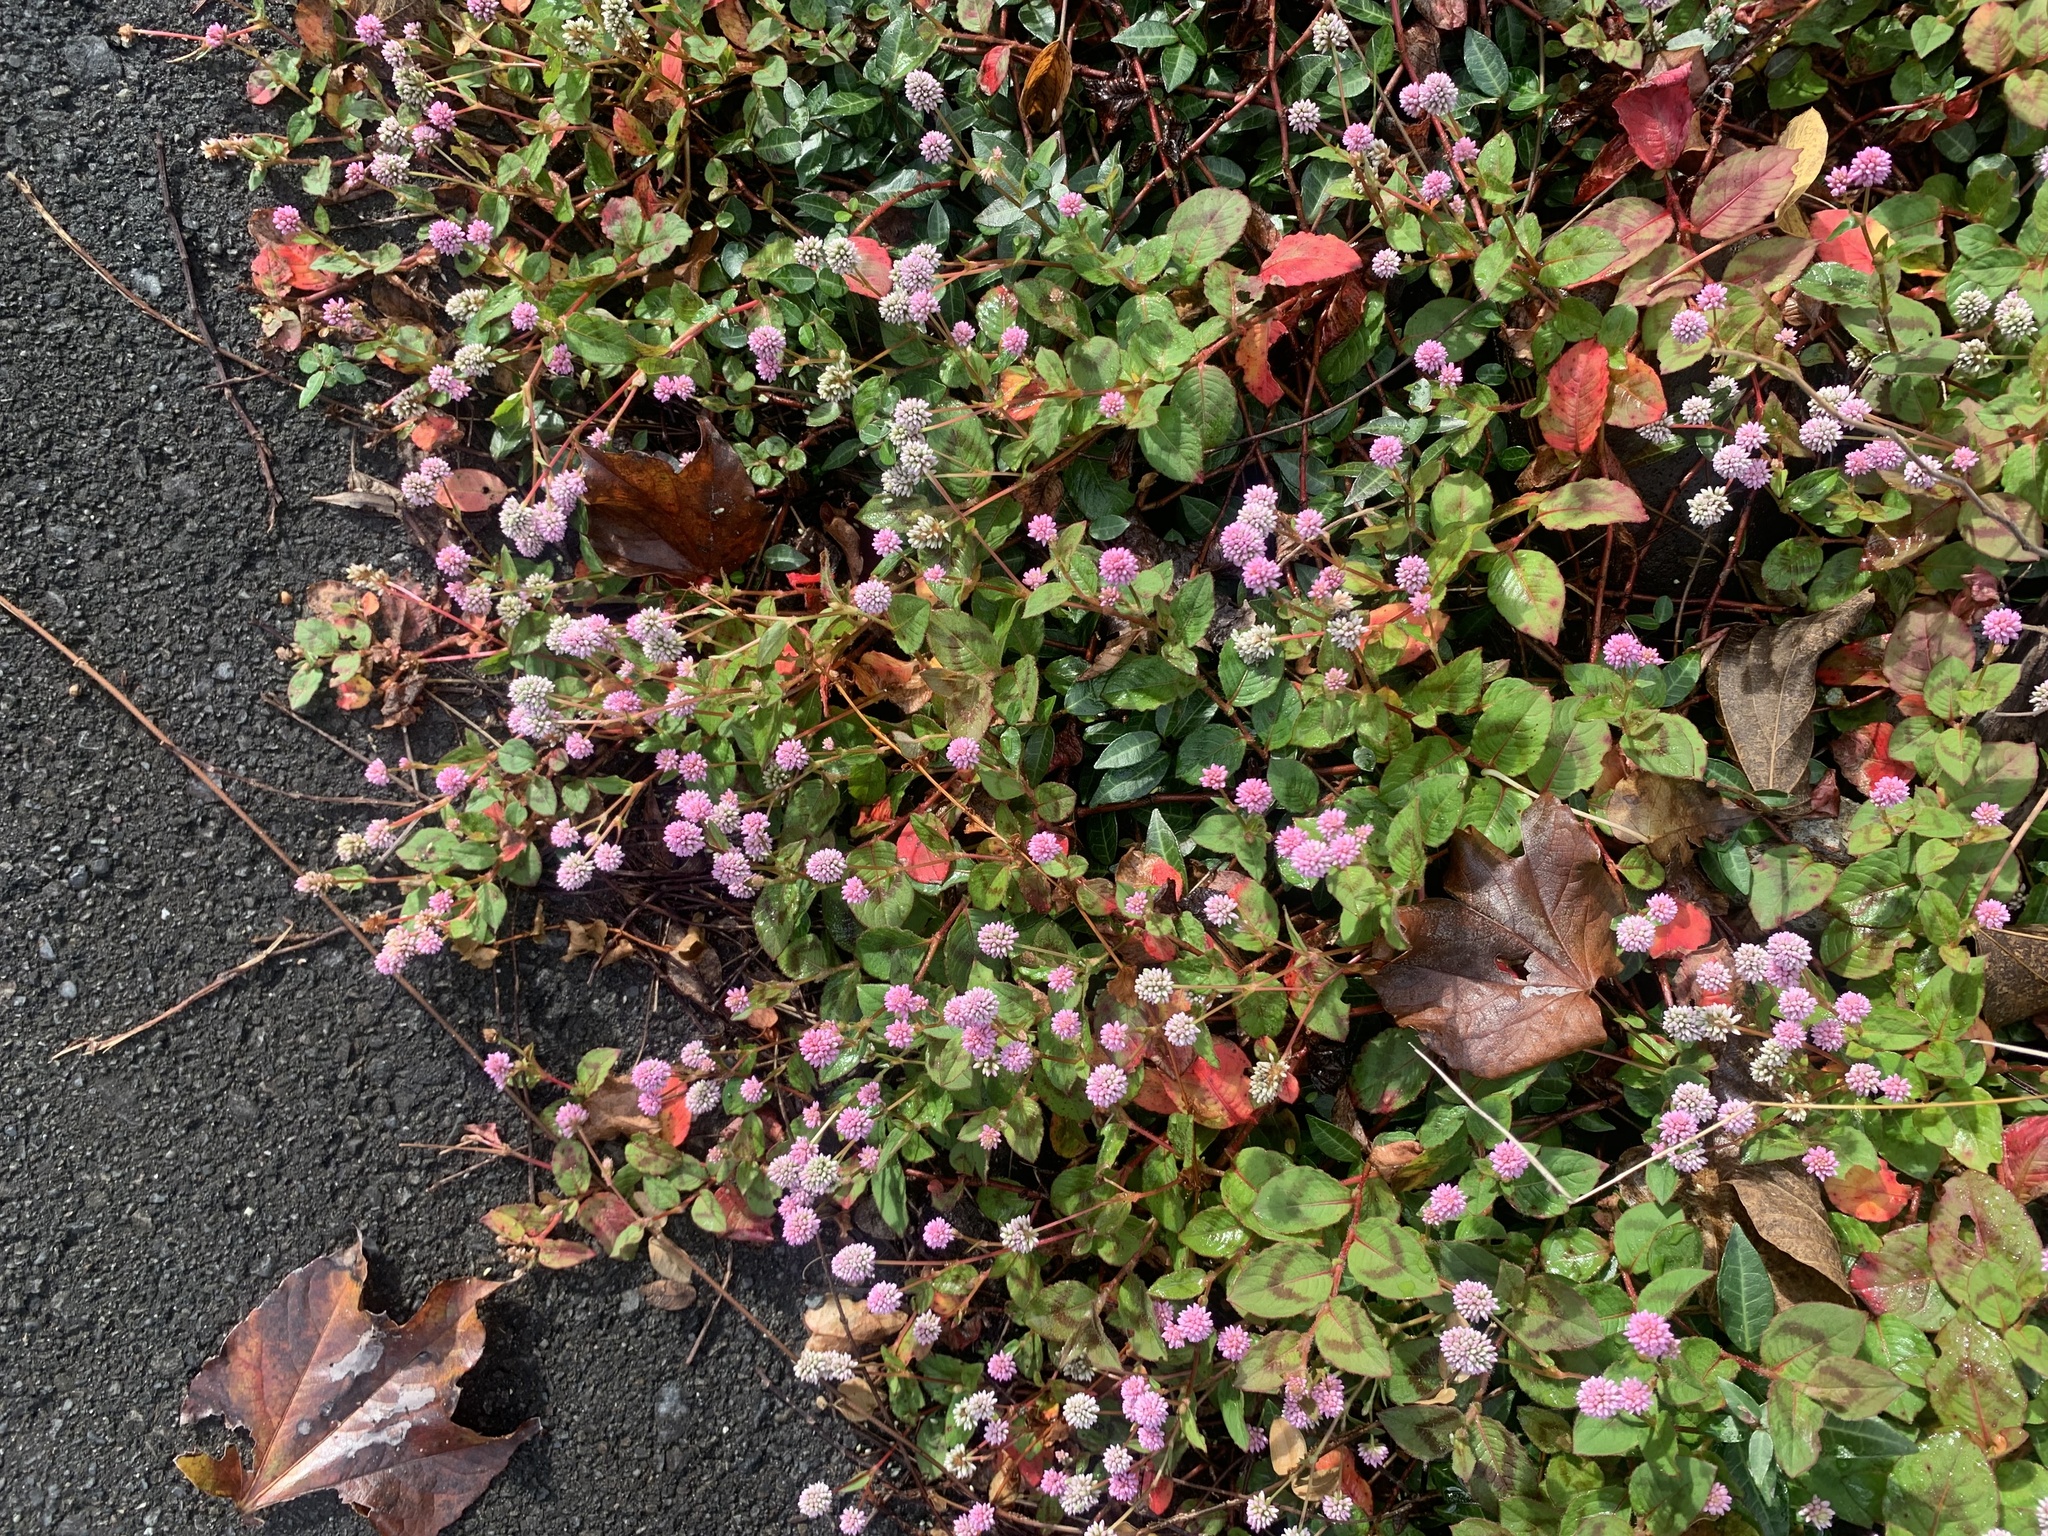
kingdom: Plantae
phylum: Tracheophyta
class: Magnoliopsida
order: Caryophyllales
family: Polygonaceae
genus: Persicaria
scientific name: Persicaria capitata
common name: Pinkhead smartweed
